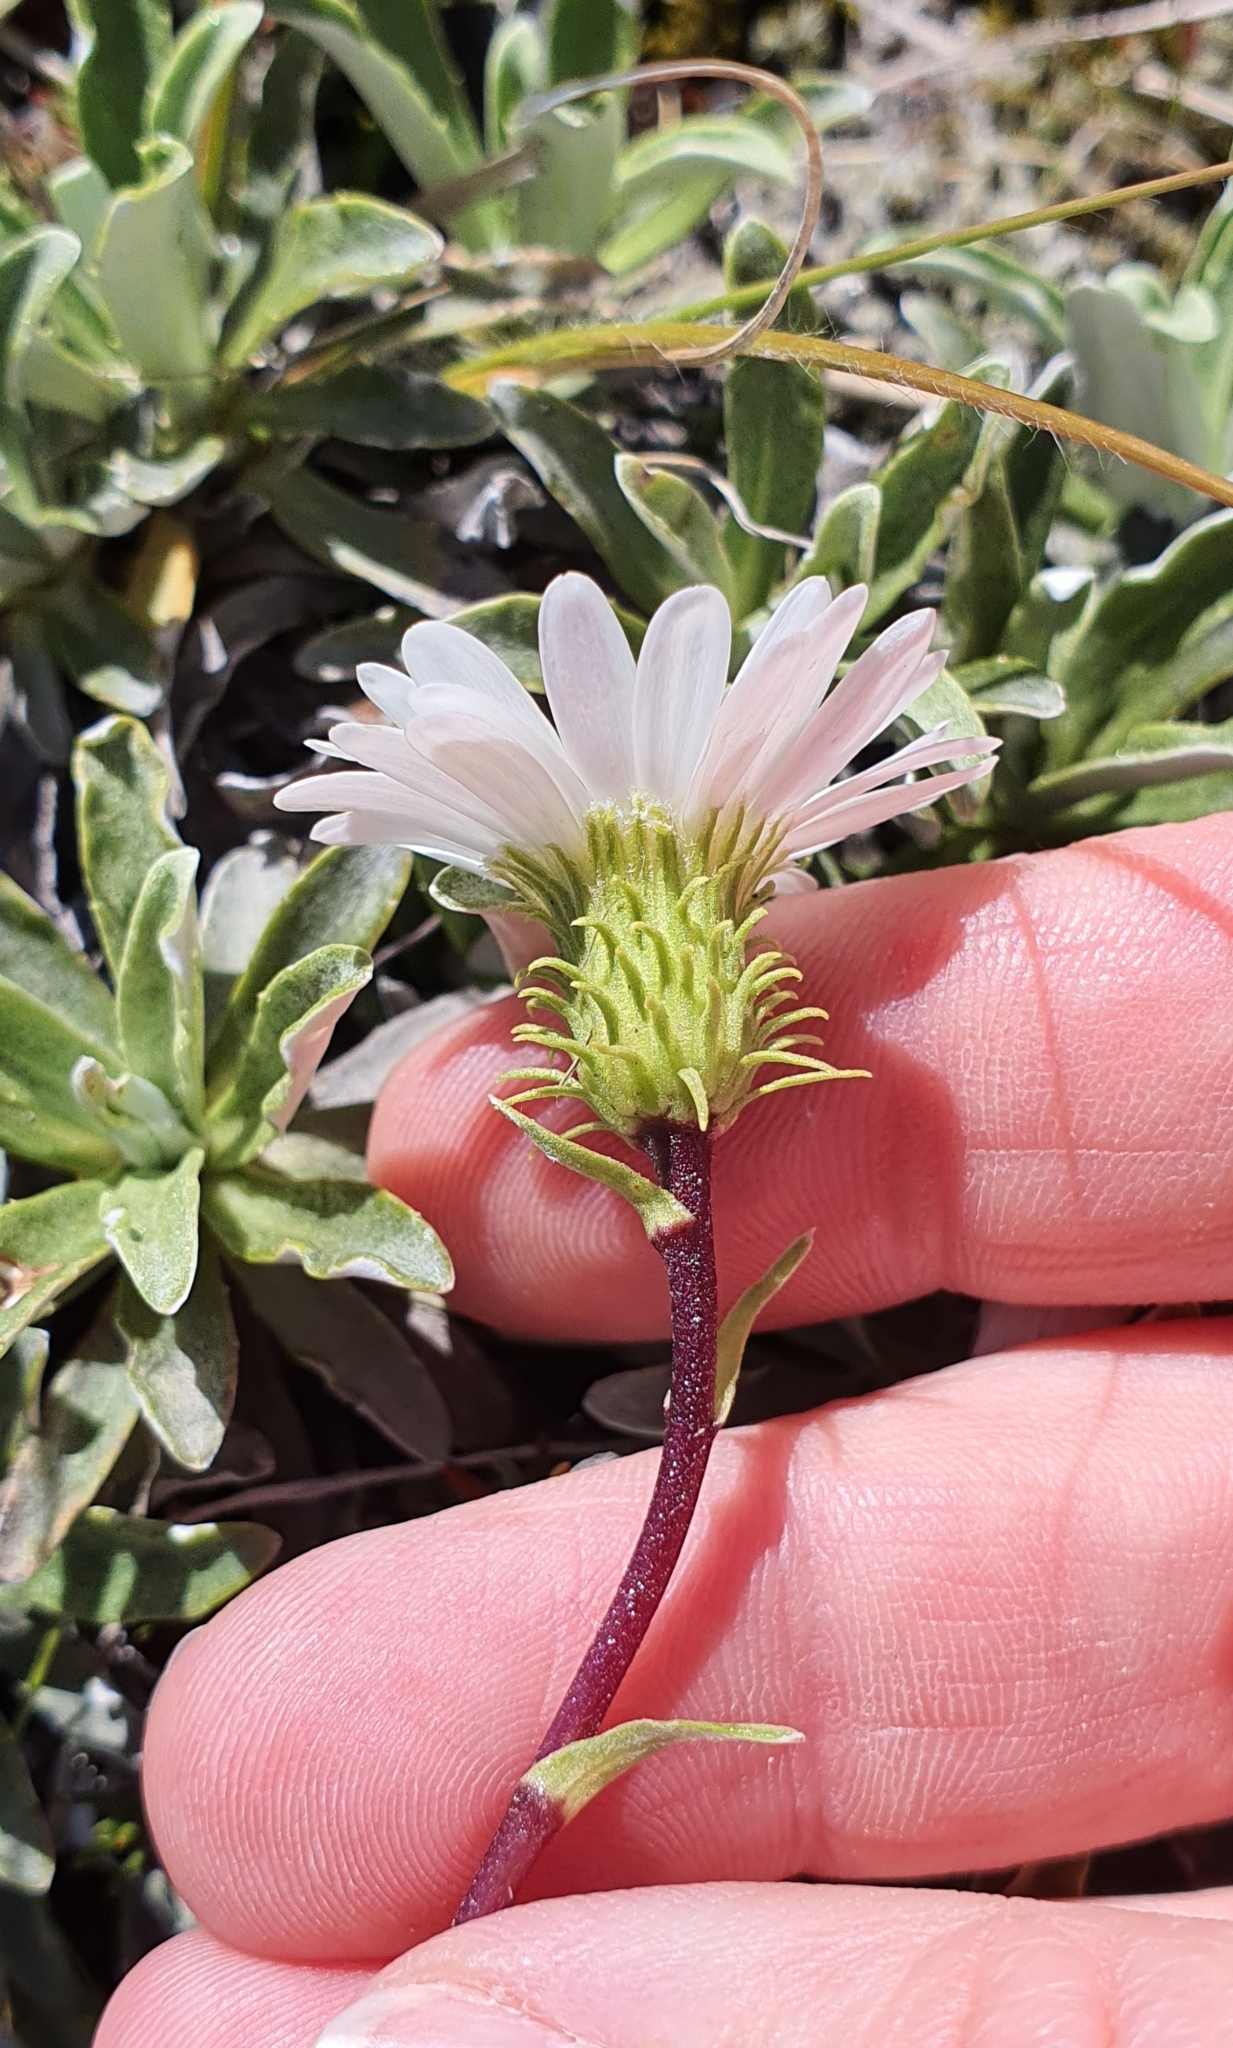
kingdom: Plantae
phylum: Tracheophyta
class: Magnoliopsida
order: Asterales
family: Asteraceae
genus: Celmisia
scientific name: Celmisia angustifolia
